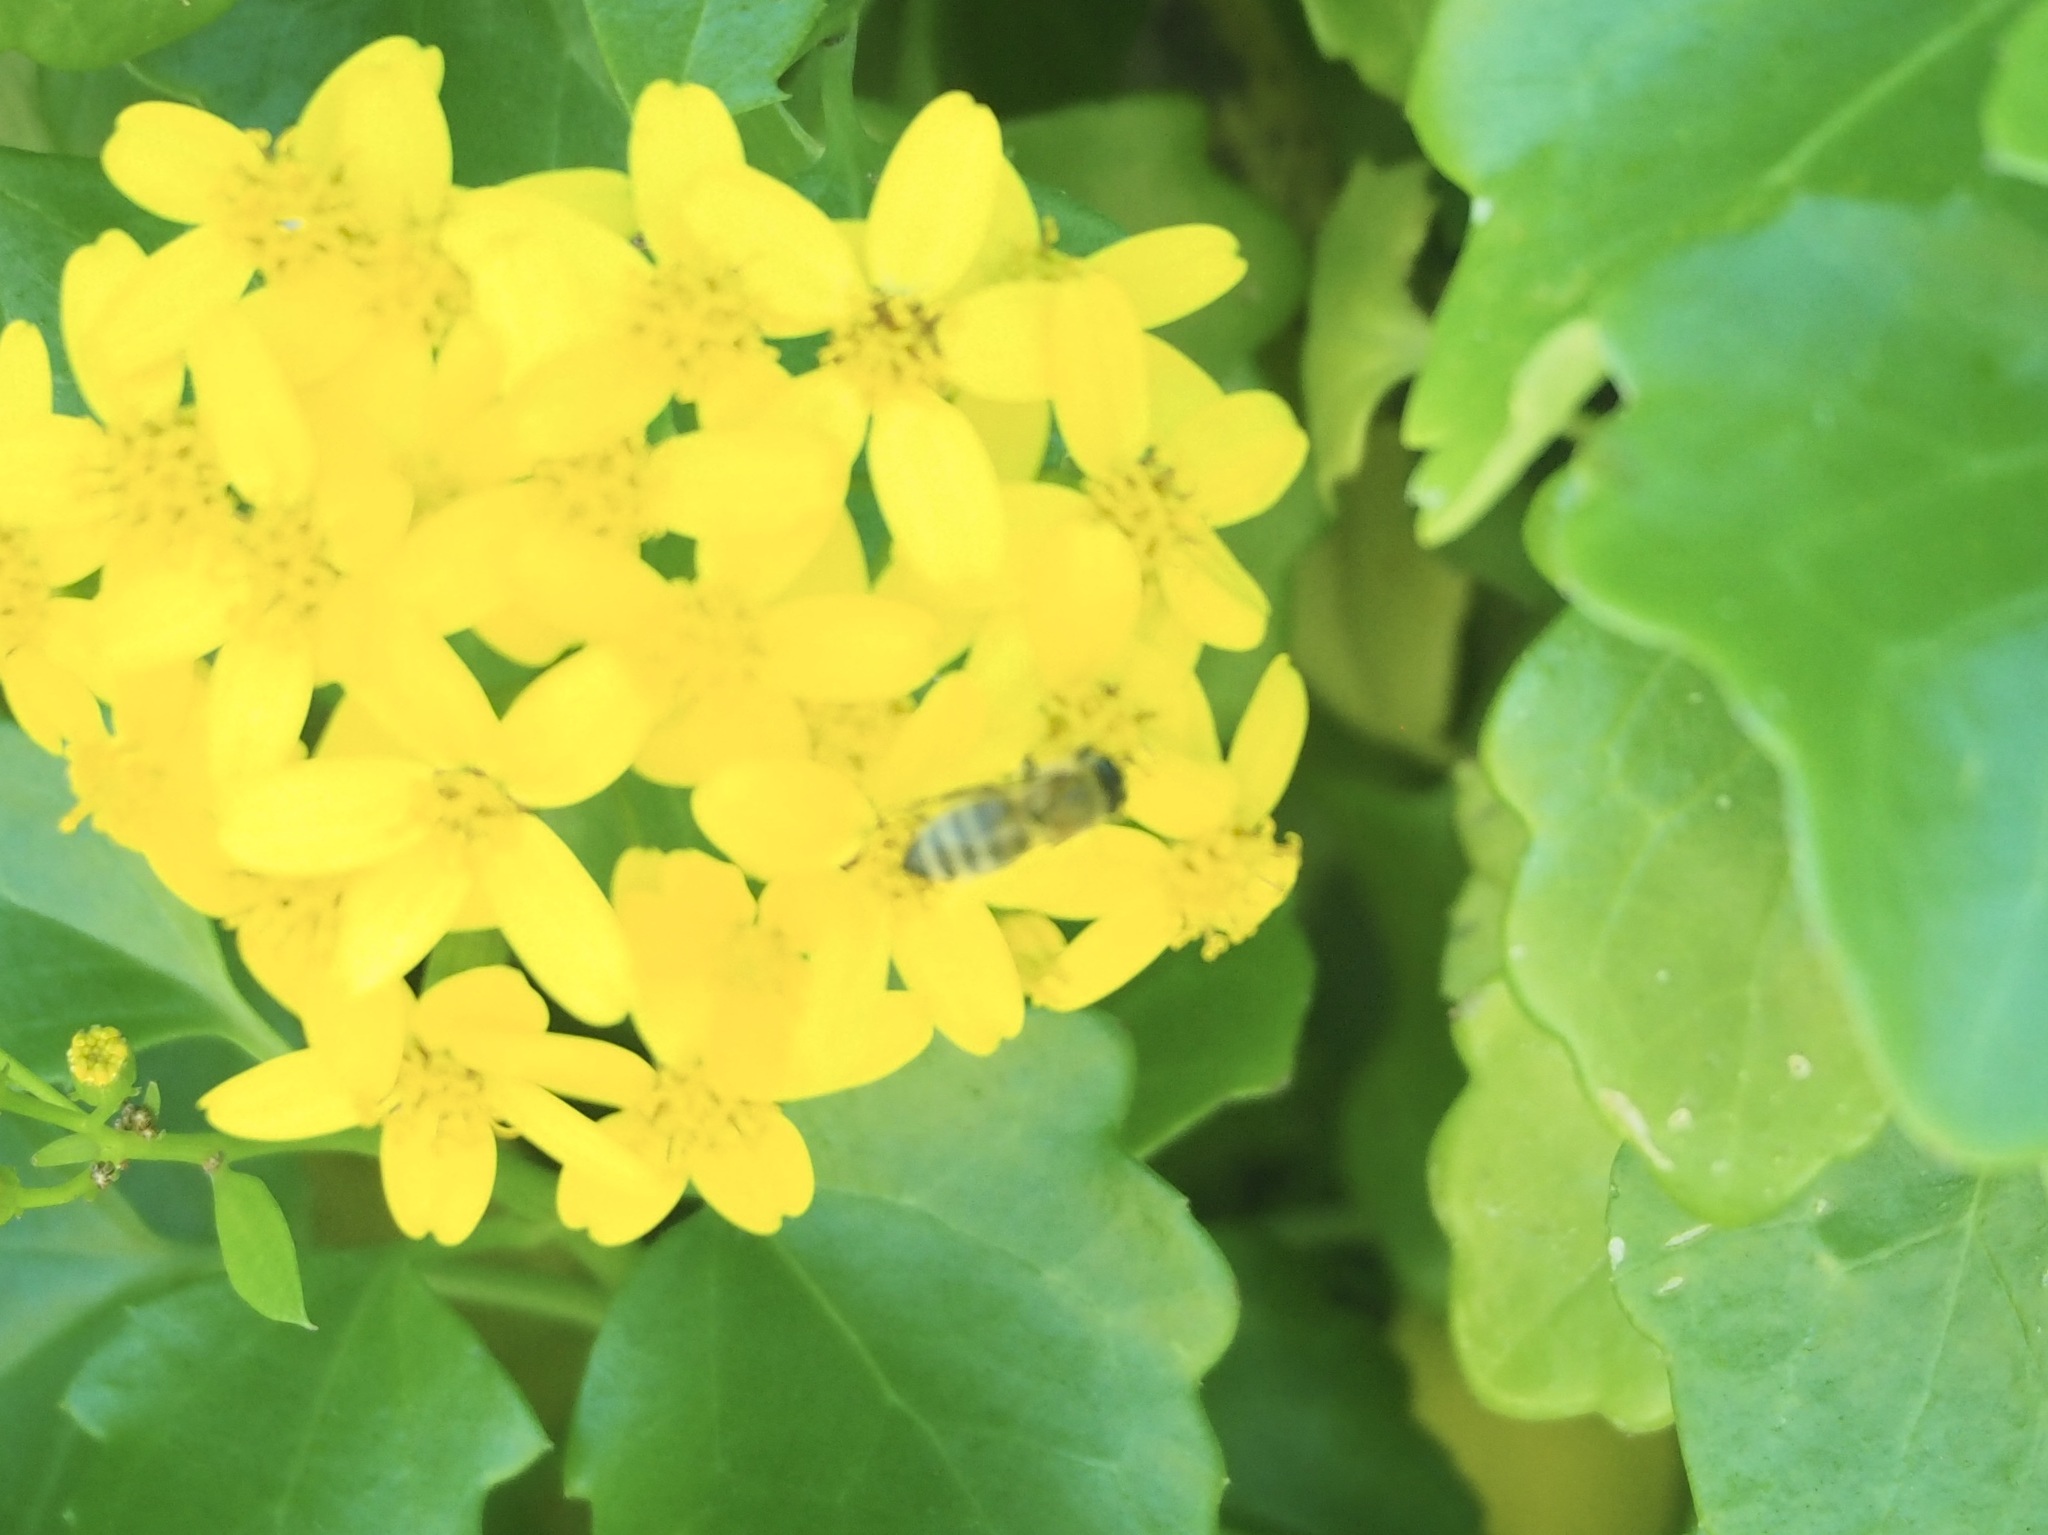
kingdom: Animalia
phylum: Arthropoda
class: Insecta
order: Hymenoptera
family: Apidae
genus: Apis
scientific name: Apis mellifera
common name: Honey bee
